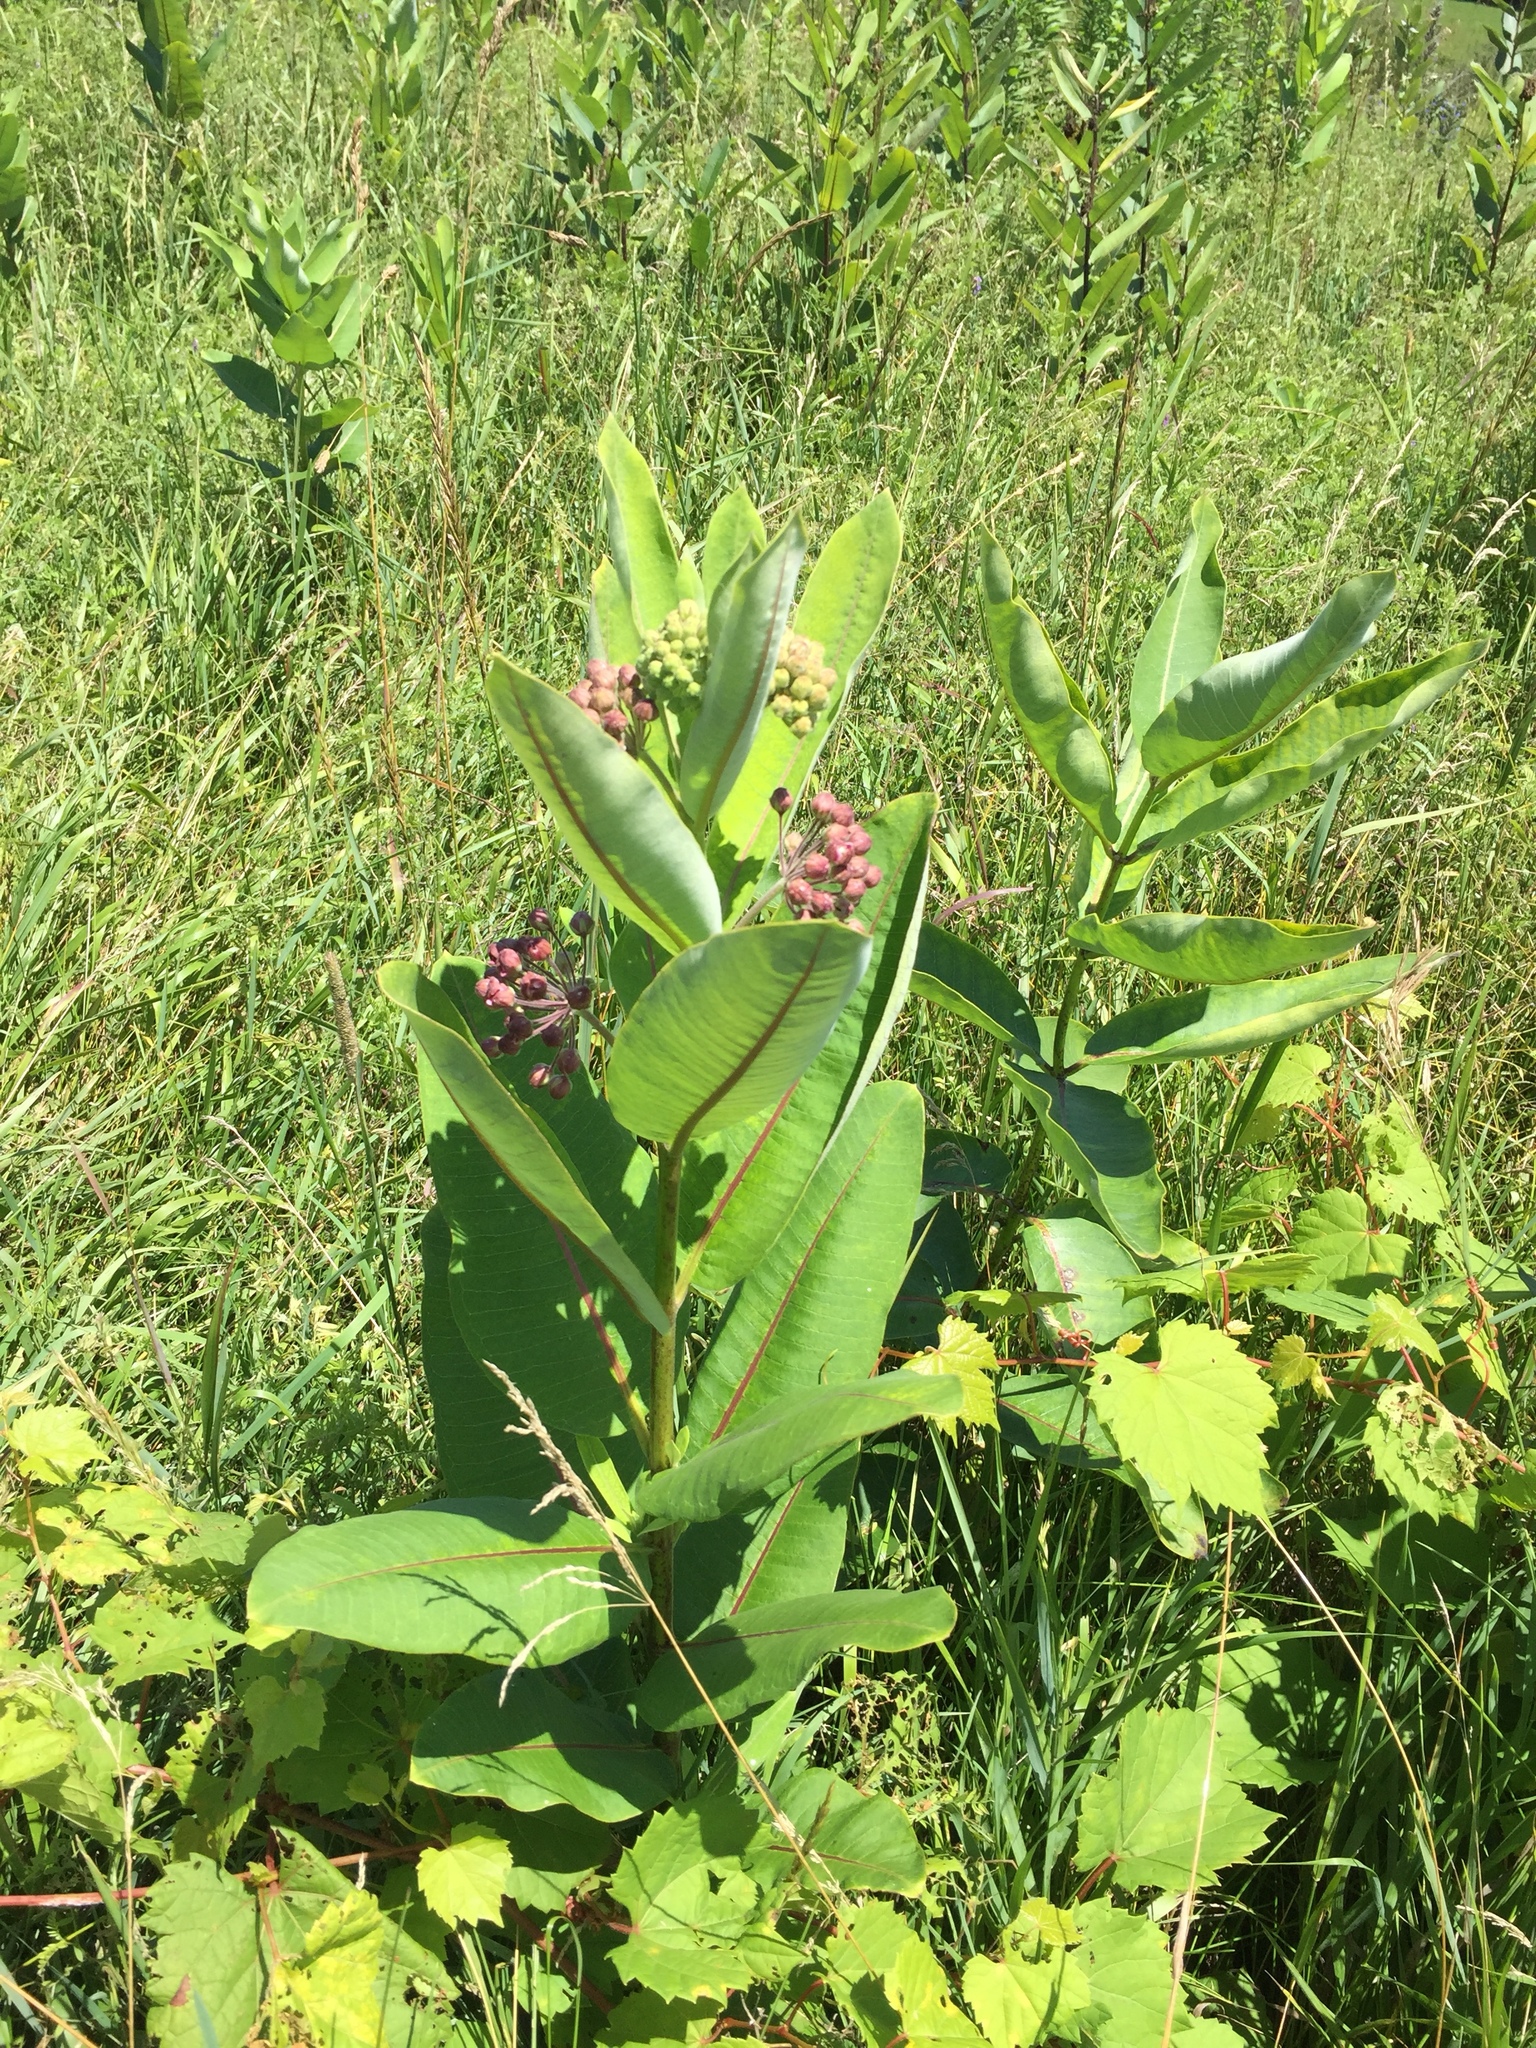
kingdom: Plantae
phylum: Tracheophyta
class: Magnoliopsida
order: Gentianales
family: Apocynaceae
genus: Asclepias
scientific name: Asclepias syriaca
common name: Common milkweed
